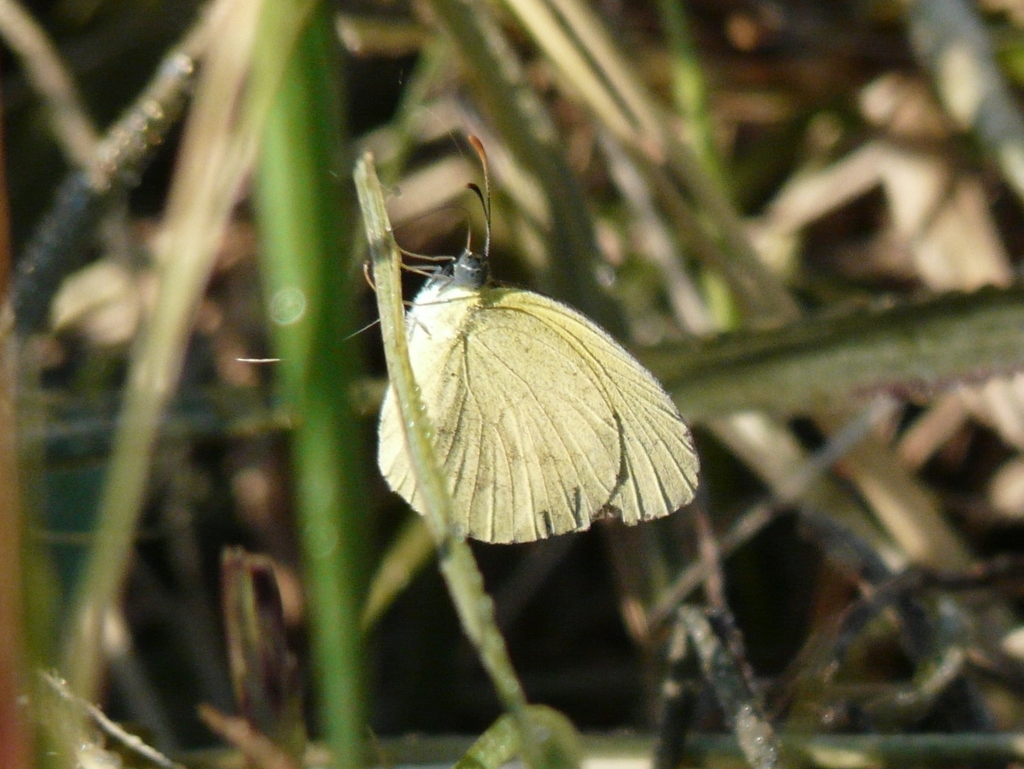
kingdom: Animalia
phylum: Arthropoda
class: Insecta
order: Lepidoptera
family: Pieridae
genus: Eurema
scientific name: Eurema brigitta
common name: Small grass yellow
